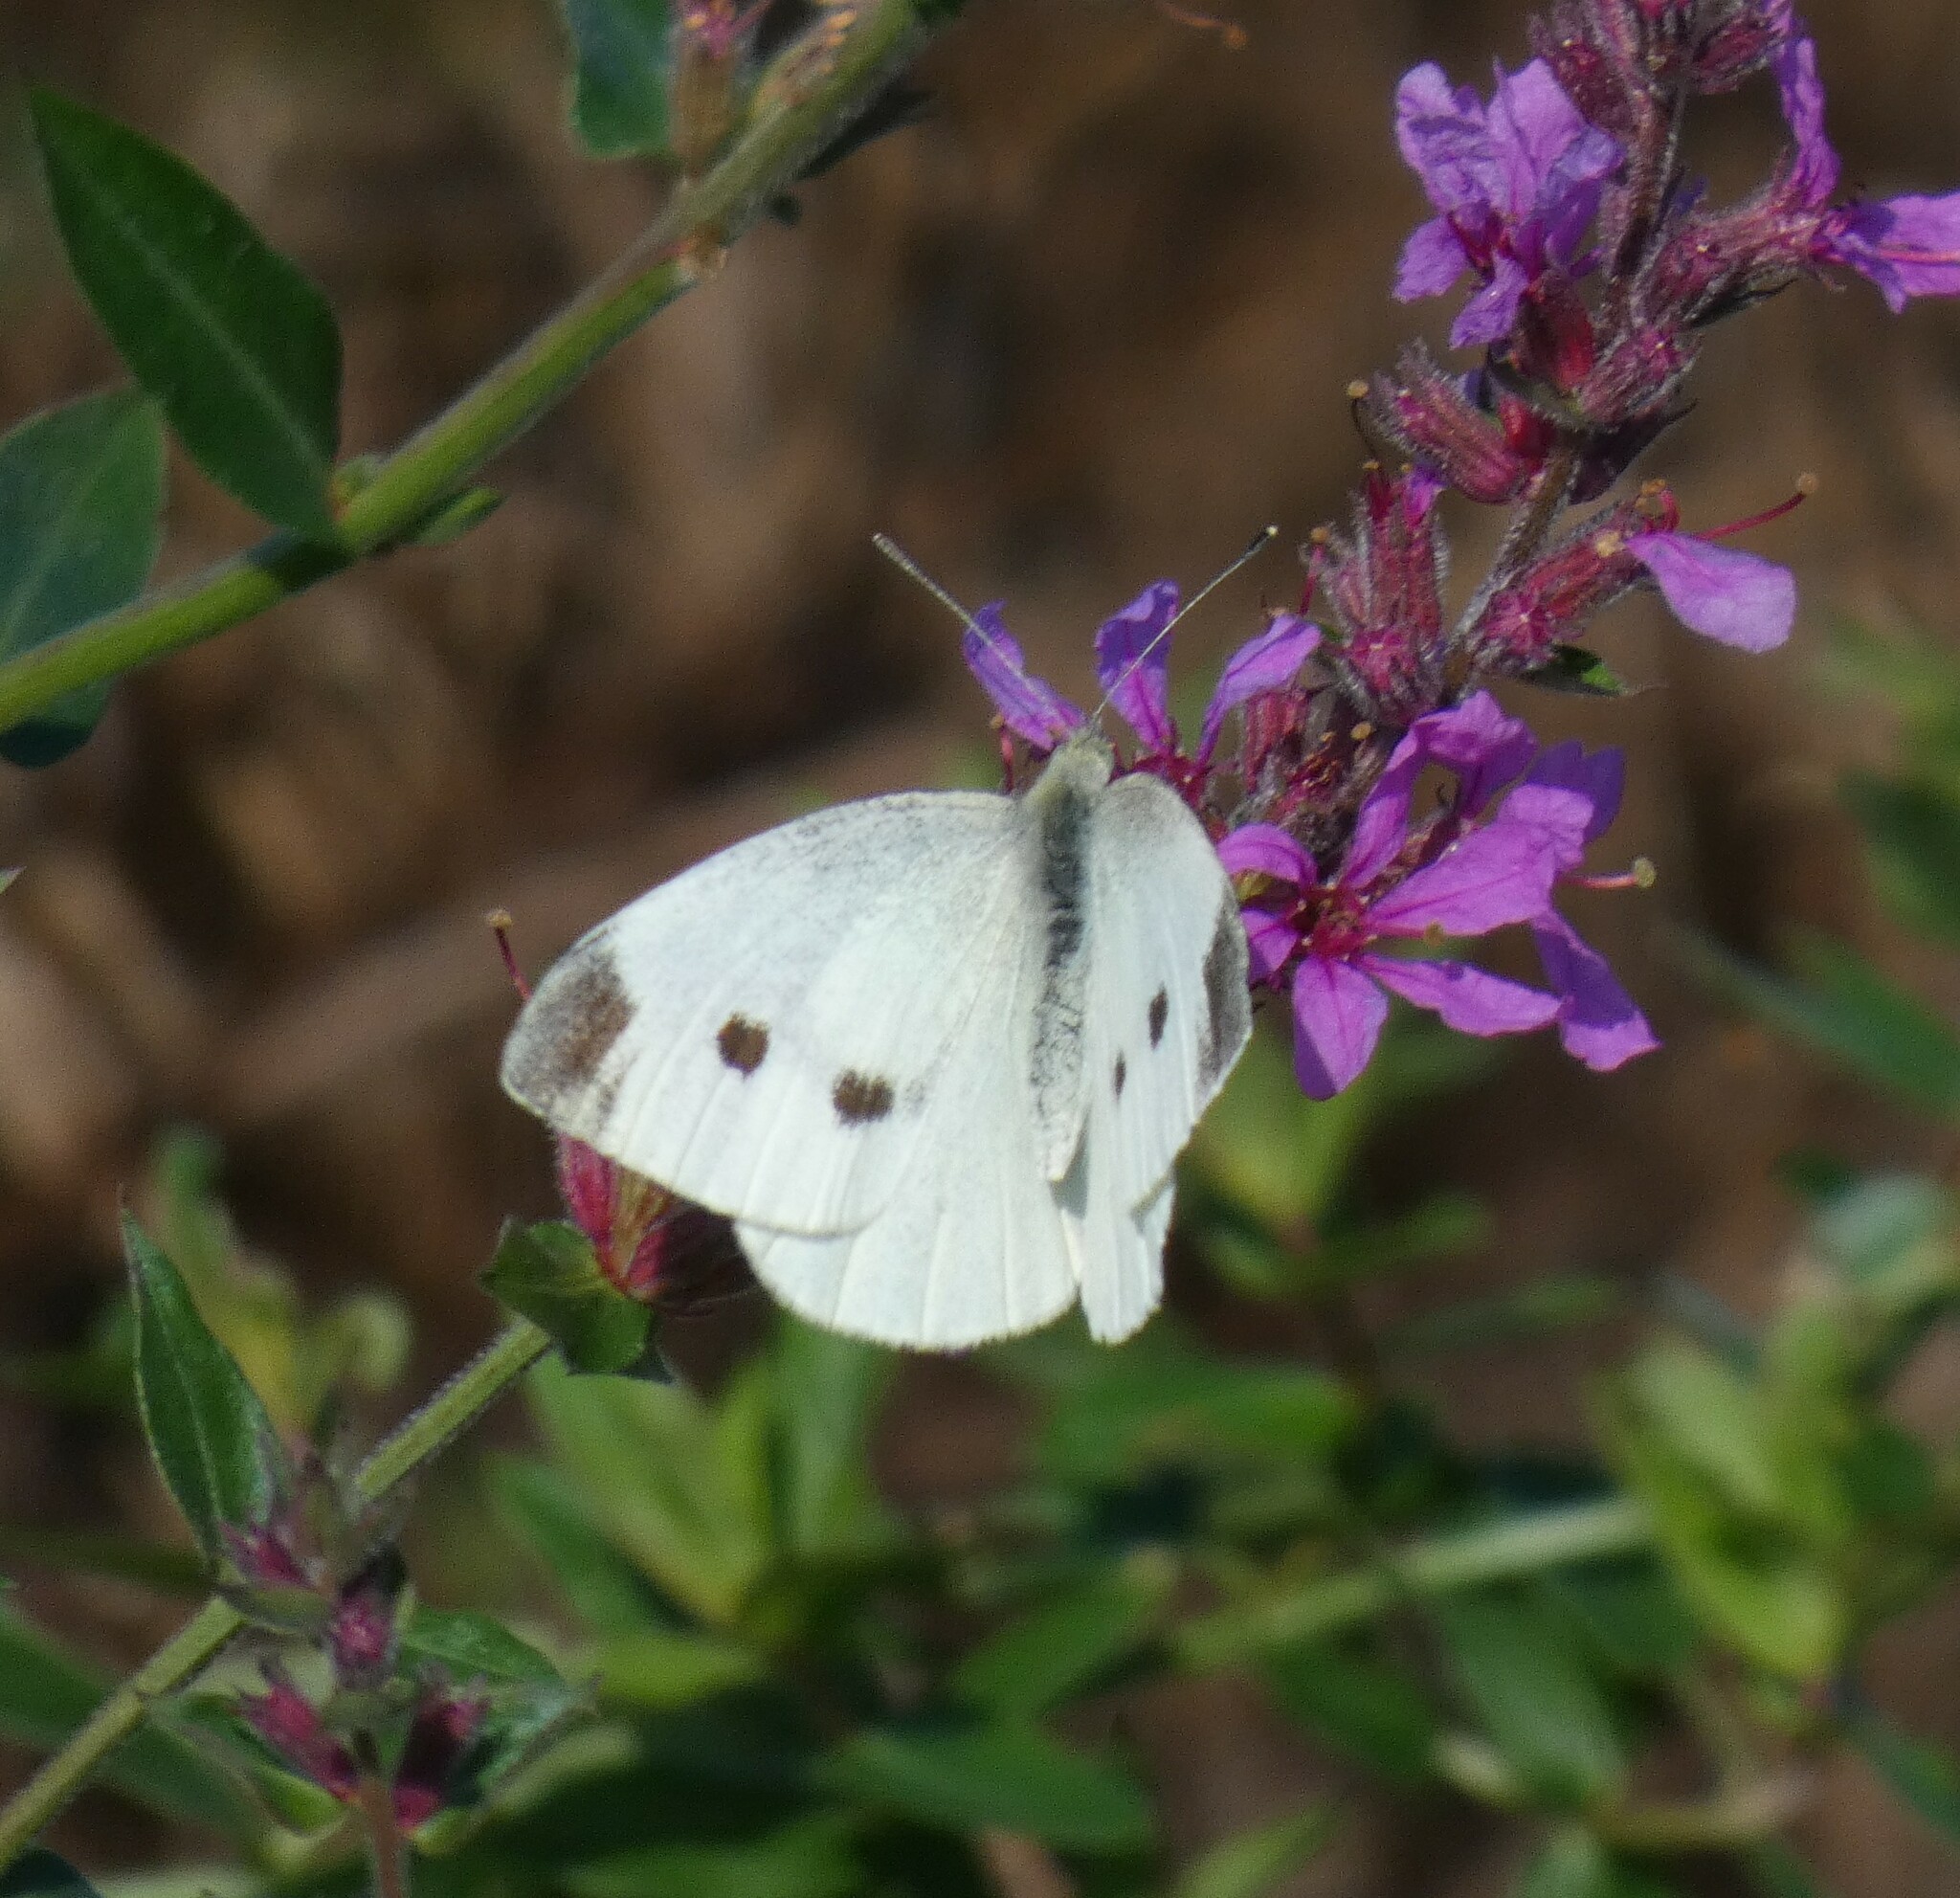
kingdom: Animalia
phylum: Arthropoda
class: Insecta
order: Lepidoptera
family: Pieridae
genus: Pieris
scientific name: Pieris rapae
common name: Small white
